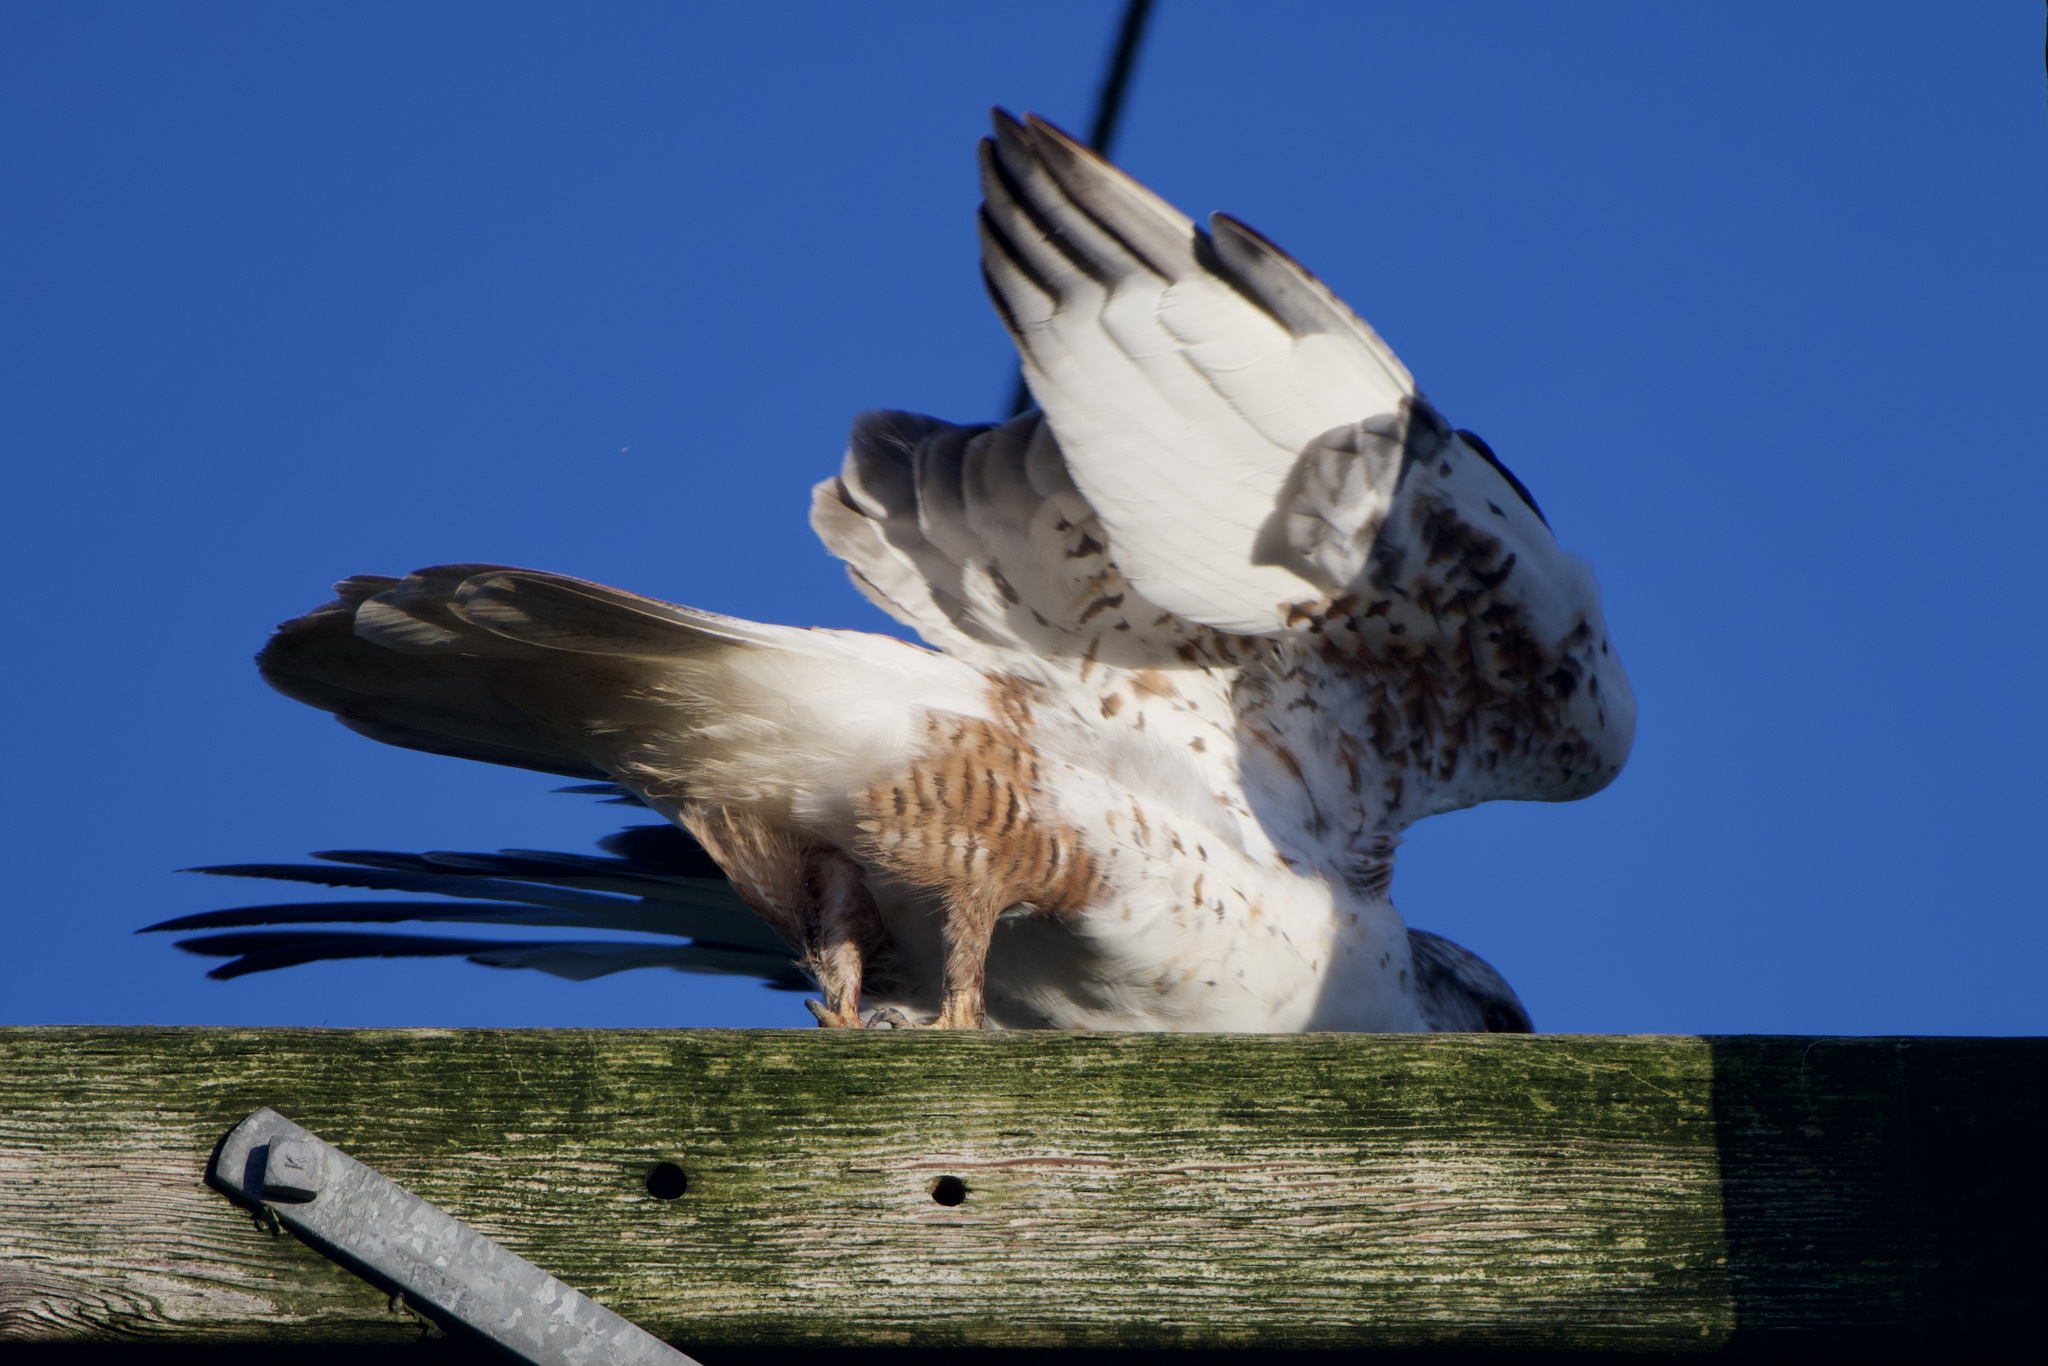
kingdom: Animalia
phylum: Chordata
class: Aves
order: Accipitriformes
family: Accipitridae
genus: Buteo
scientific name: Buteo regalis
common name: Ferruginous hawk
